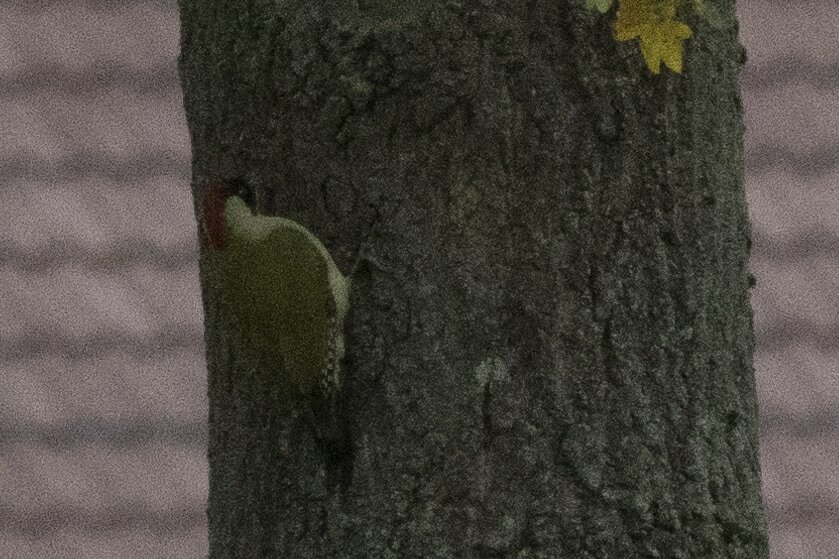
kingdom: Animalia
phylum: Chordata
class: Aves
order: Piciformes
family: Picidae
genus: Picus
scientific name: Picus viridis
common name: European green woodpecker
